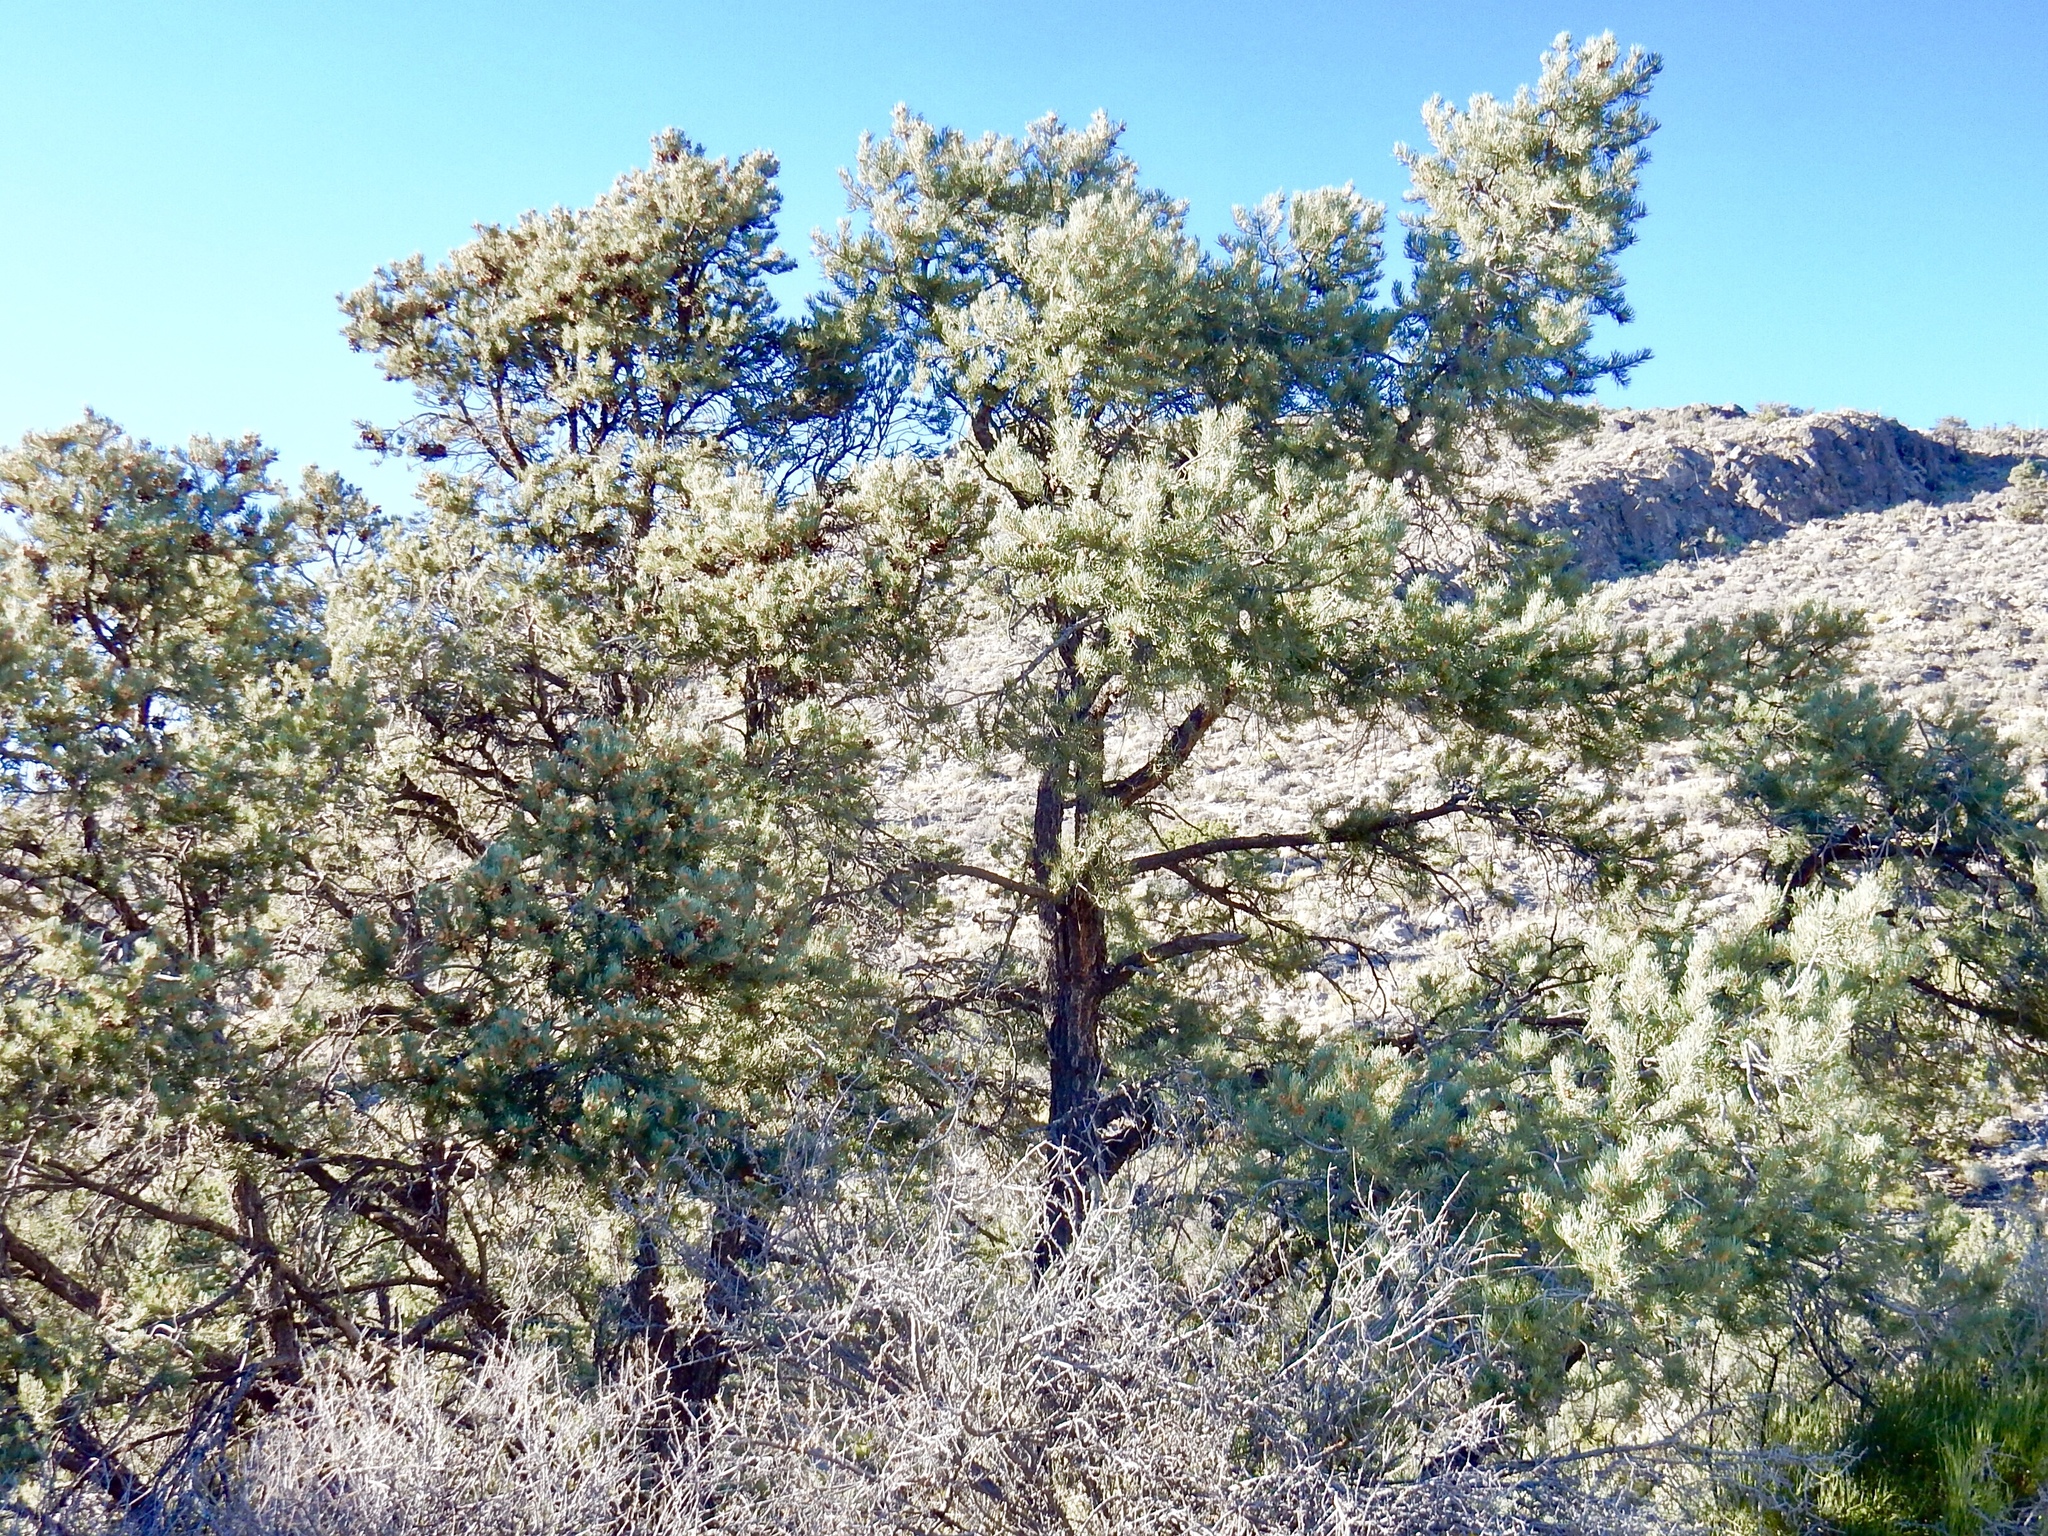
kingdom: Plantae
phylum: Tracheophyta
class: Pinopsida
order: Pinales
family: Pinaceae
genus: Pinus
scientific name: Pinus monophylla
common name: One-leaved nut pine
